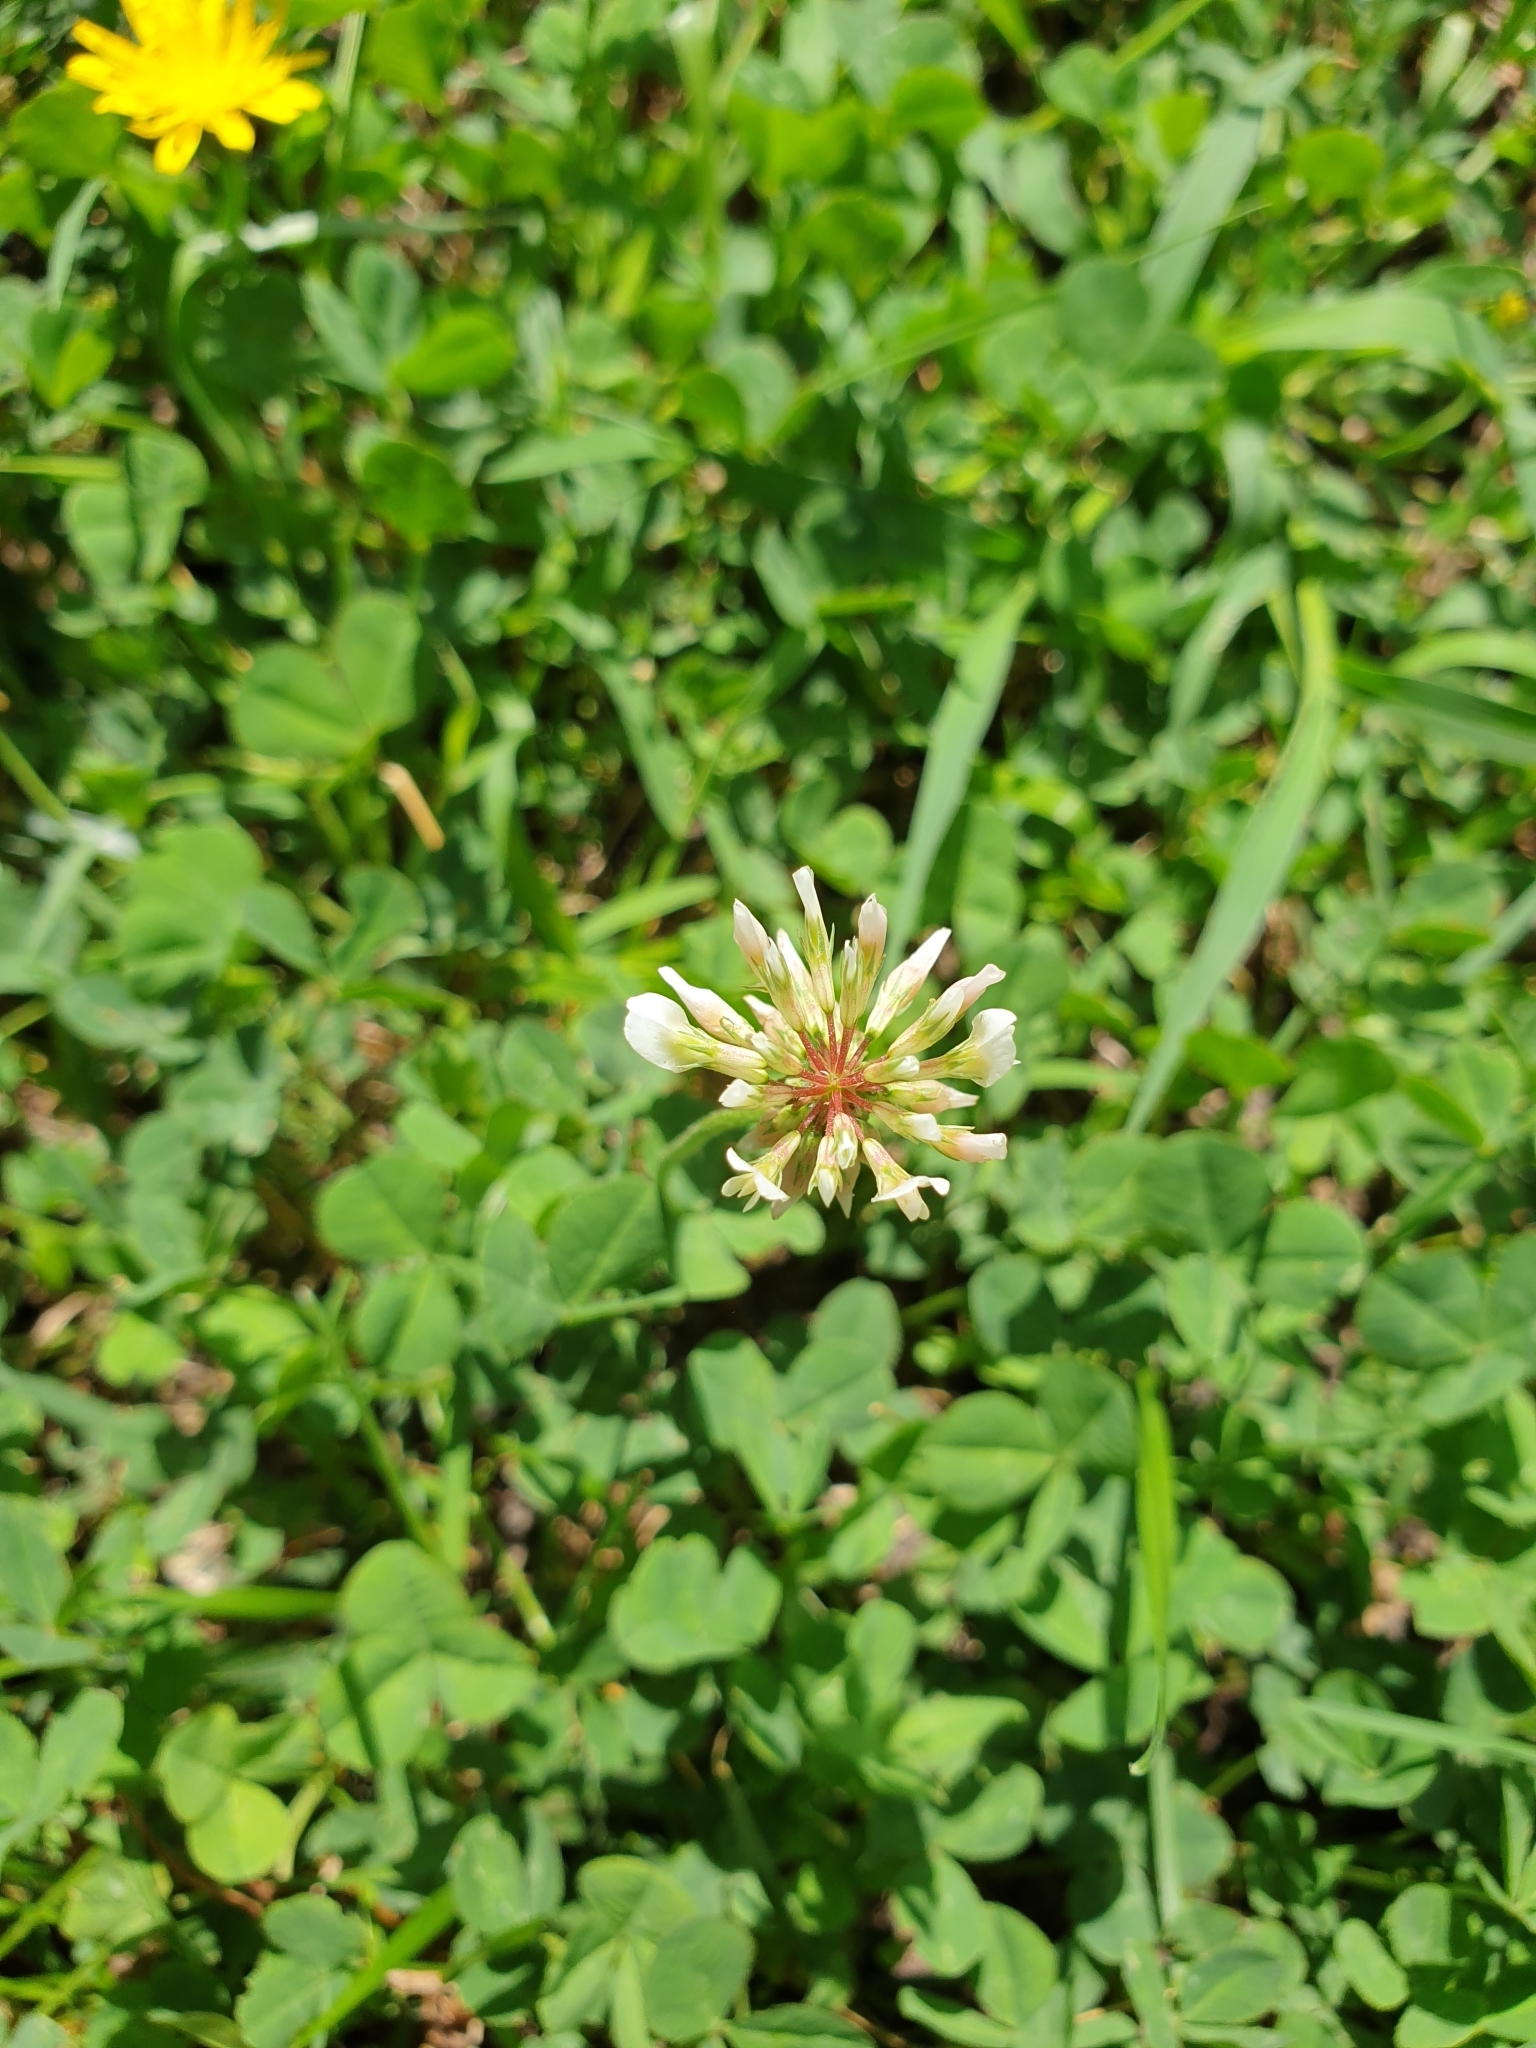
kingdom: Plantae
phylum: Tracheophyta
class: Magnoliopsida
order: Fabales
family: Fabaceae
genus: Trifolium
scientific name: Trifolium repens
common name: White clover
